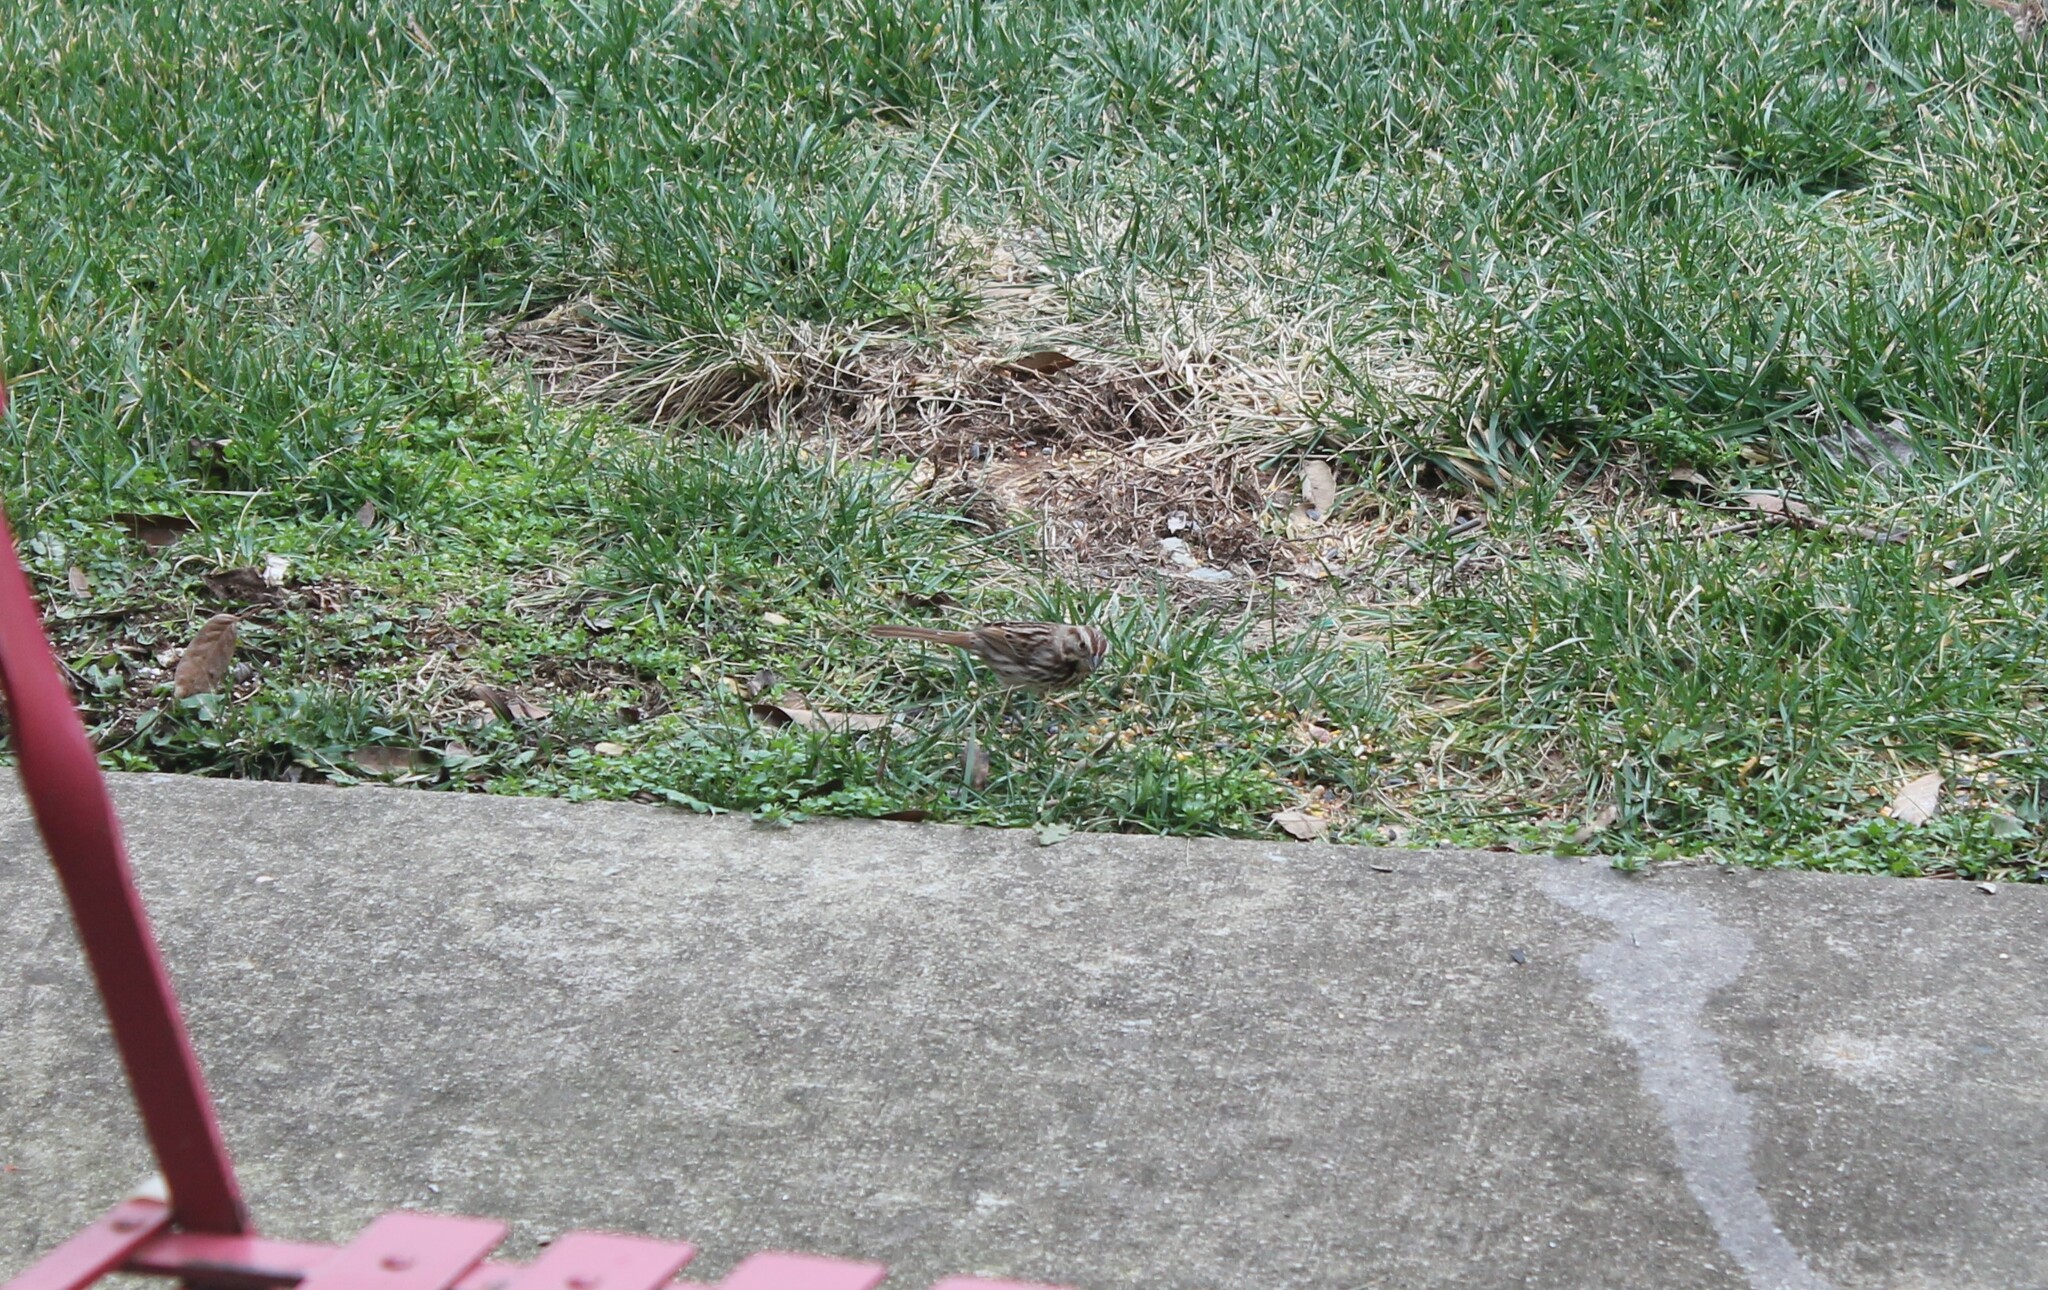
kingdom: Animalia
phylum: Chordata
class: Aves
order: Passeriformes
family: Passerellidae
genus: Melospiza
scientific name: Melospiza melodia
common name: Song sparrow
